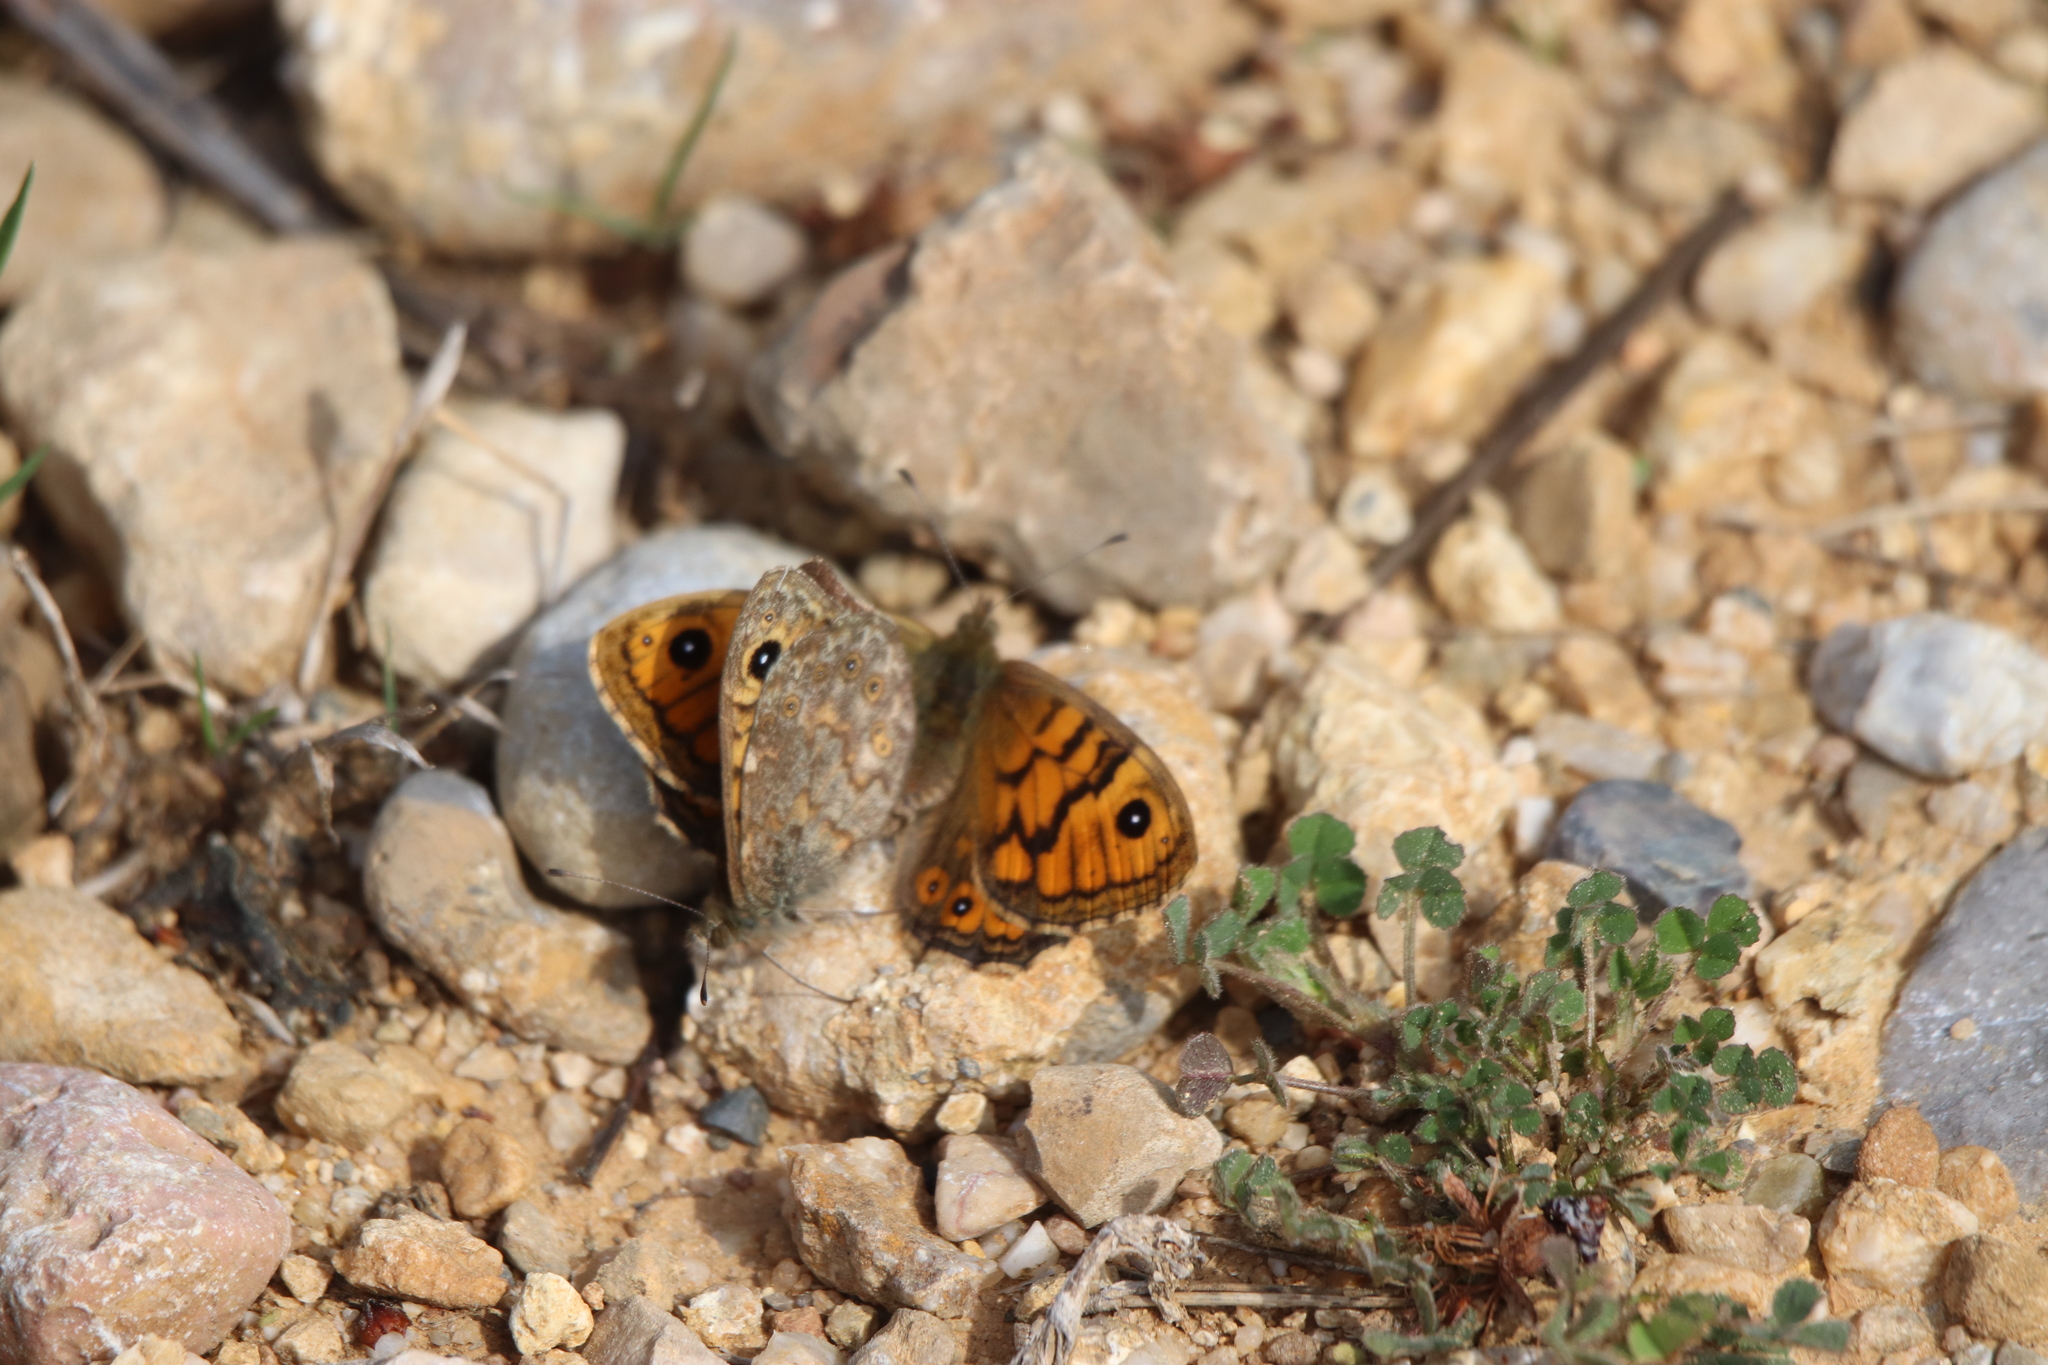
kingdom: Animalia
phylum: Arthropoda
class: Insecta
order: Lepidoptera
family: Nymphalidae
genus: Pararge
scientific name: Pararge Lasiommata megera
